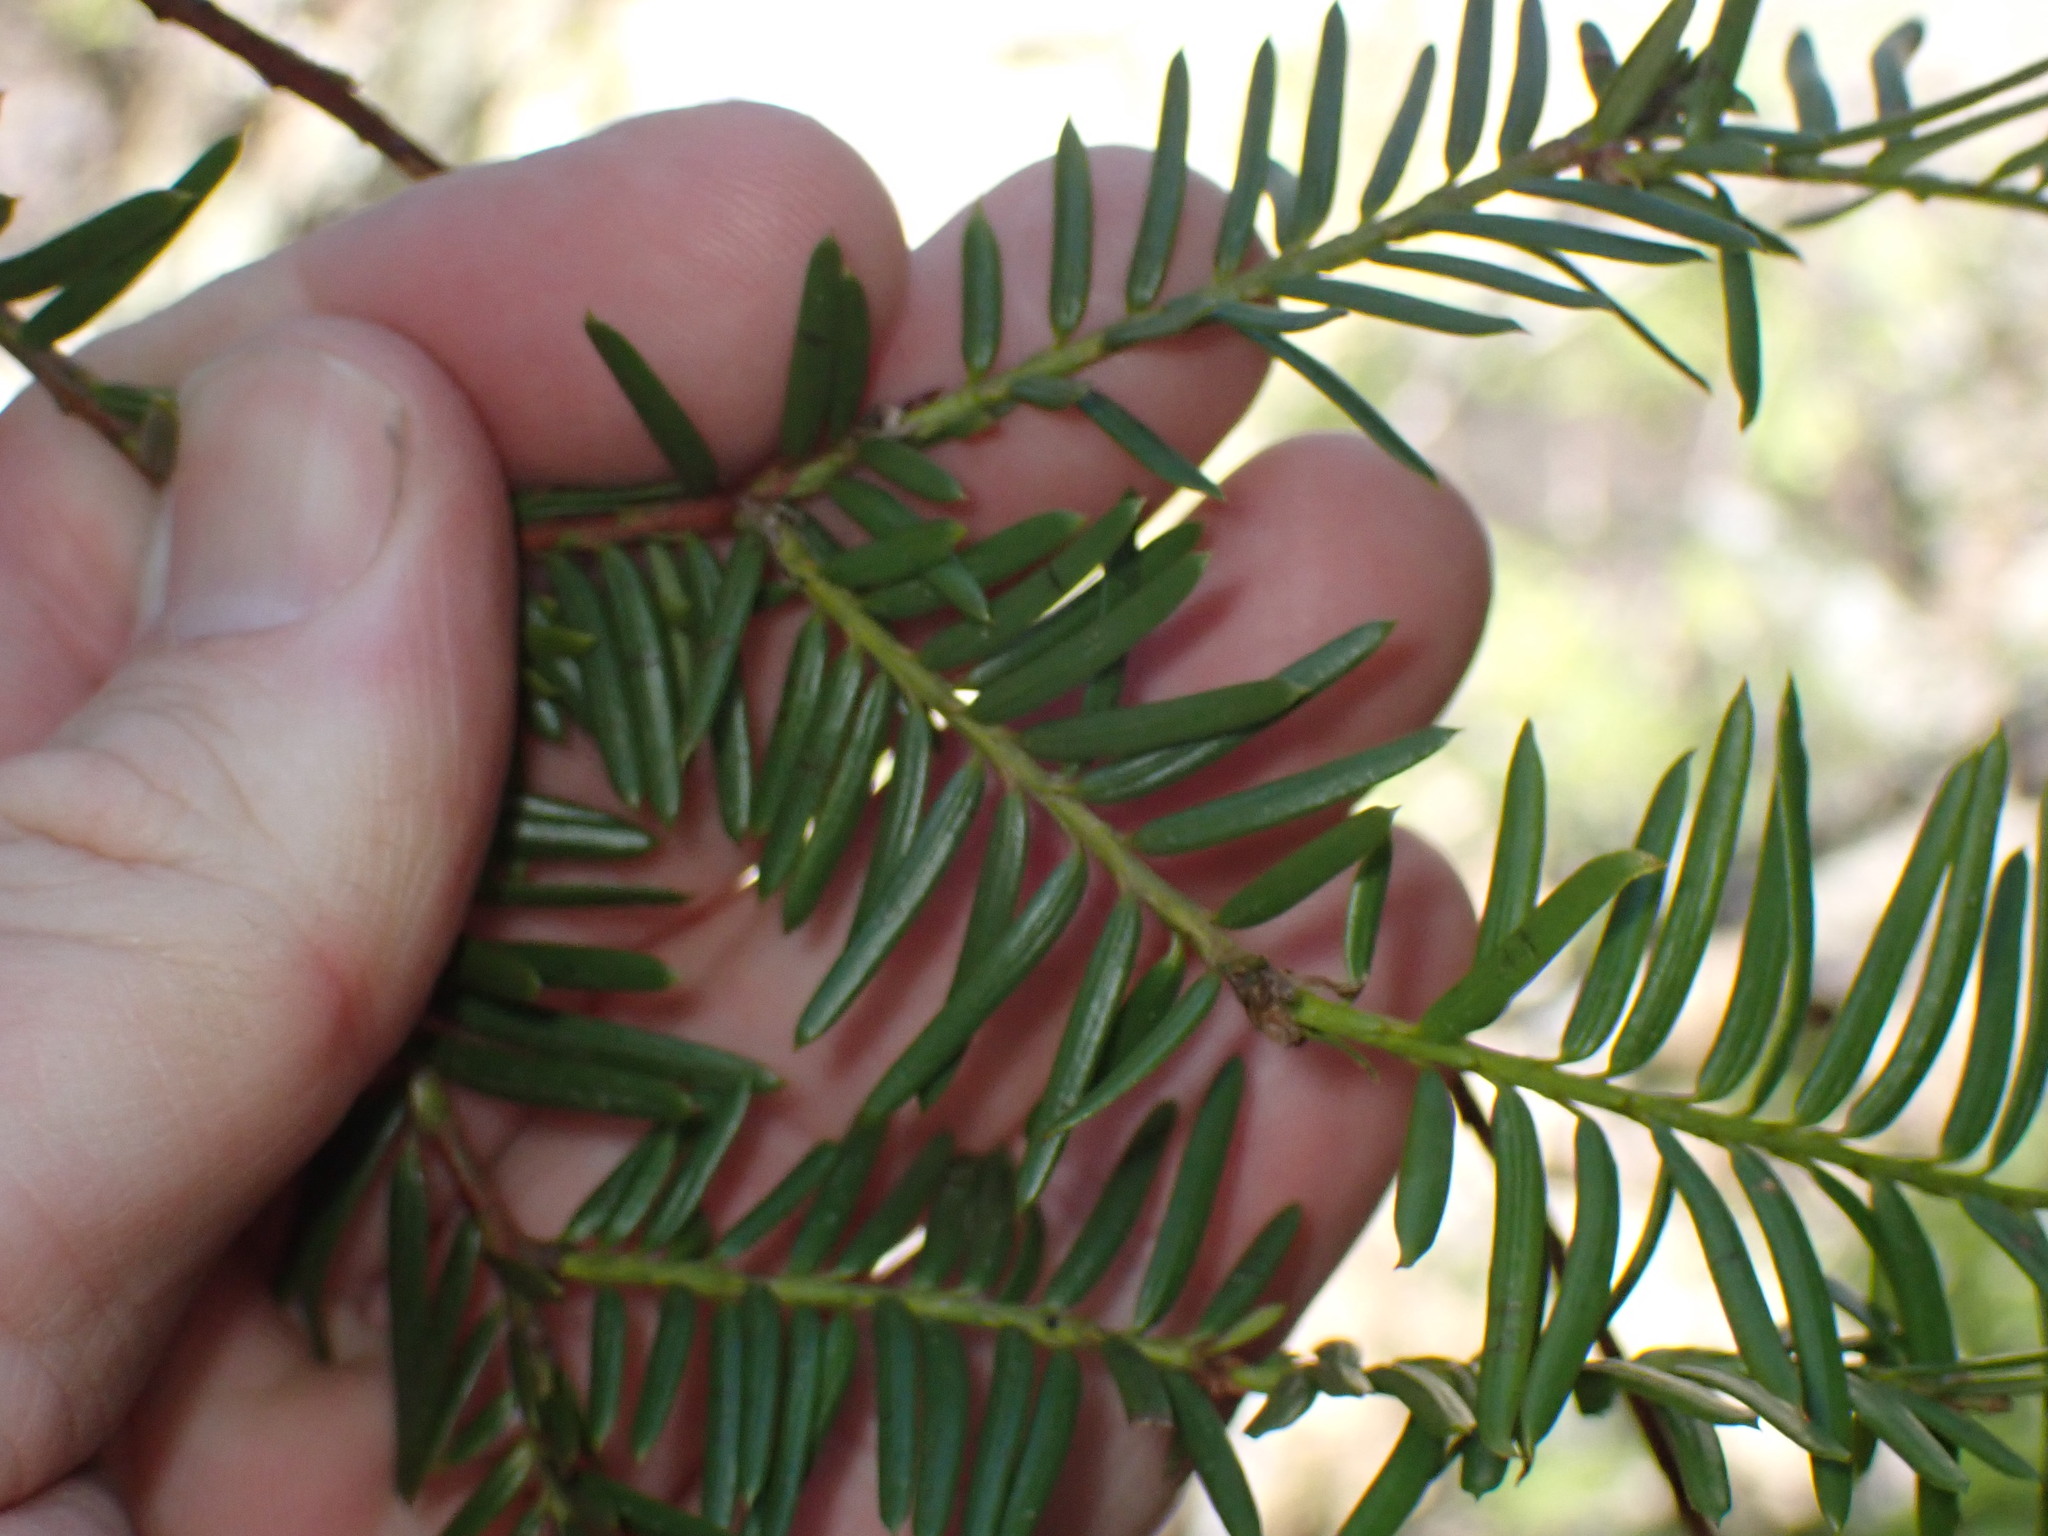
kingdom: Plantae
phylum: Tracheophyta
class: Pinopsida
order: Pinales
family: Taxaceae
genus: Taxus
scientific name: Taxus brevifolia
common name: Pacific yew
